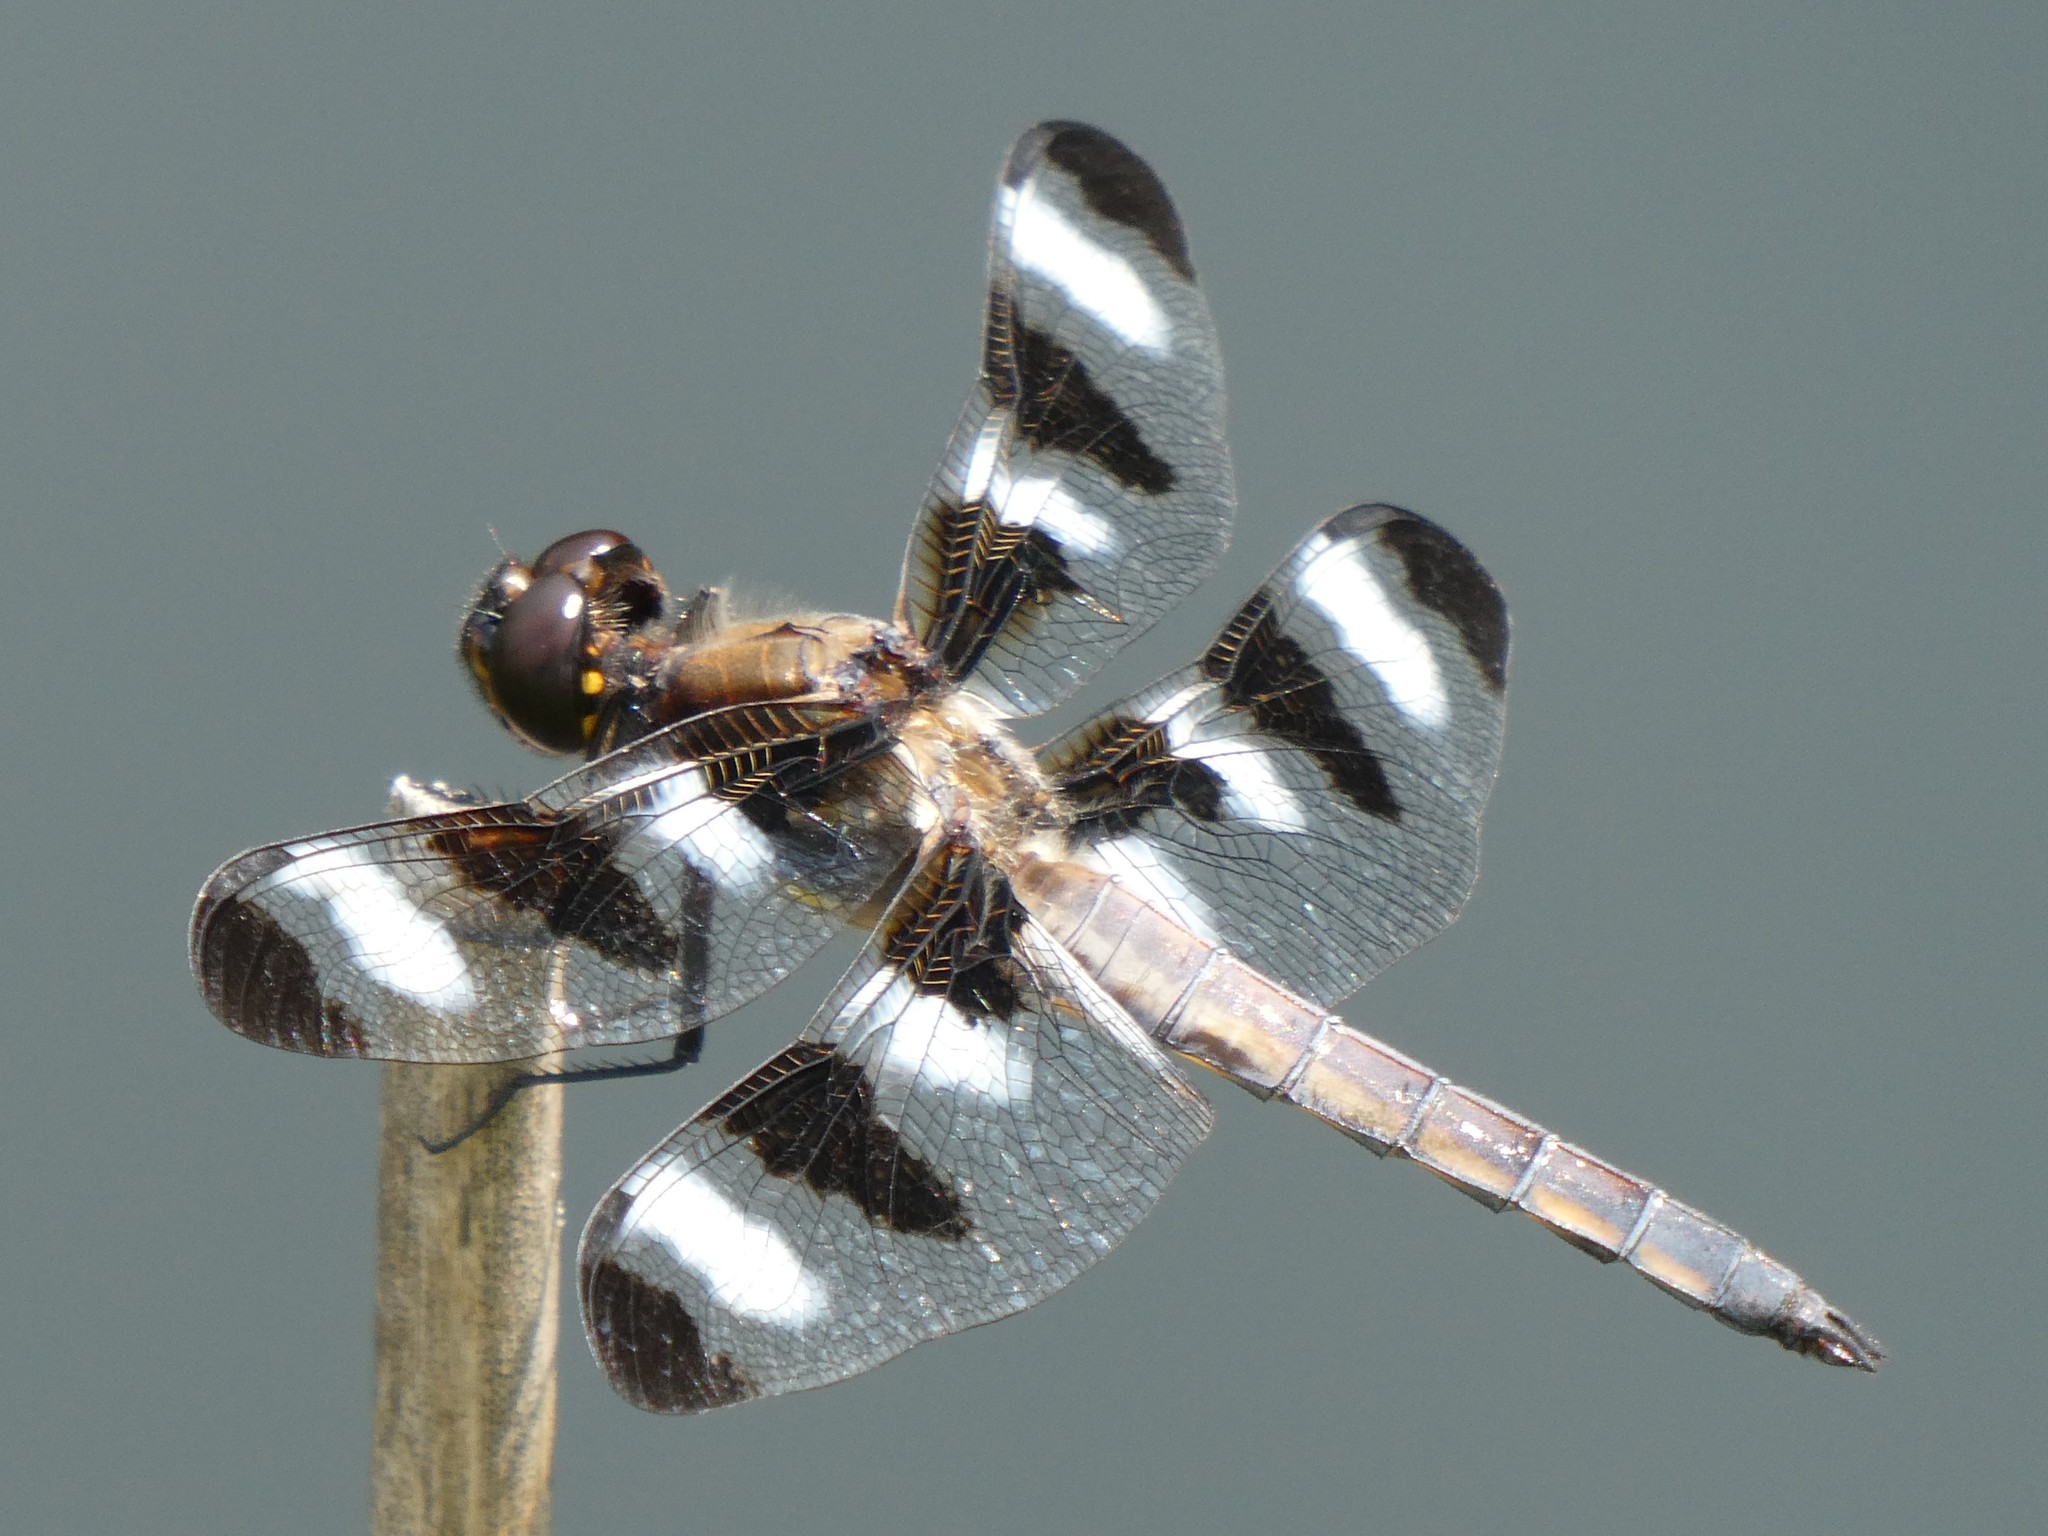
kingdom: Animalia
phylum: Arthropoda
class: Insecta
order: Odonata
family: Libellulidae
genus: Libellula
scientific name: Libellula pulchella
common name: Twelve-spotted skimmer
